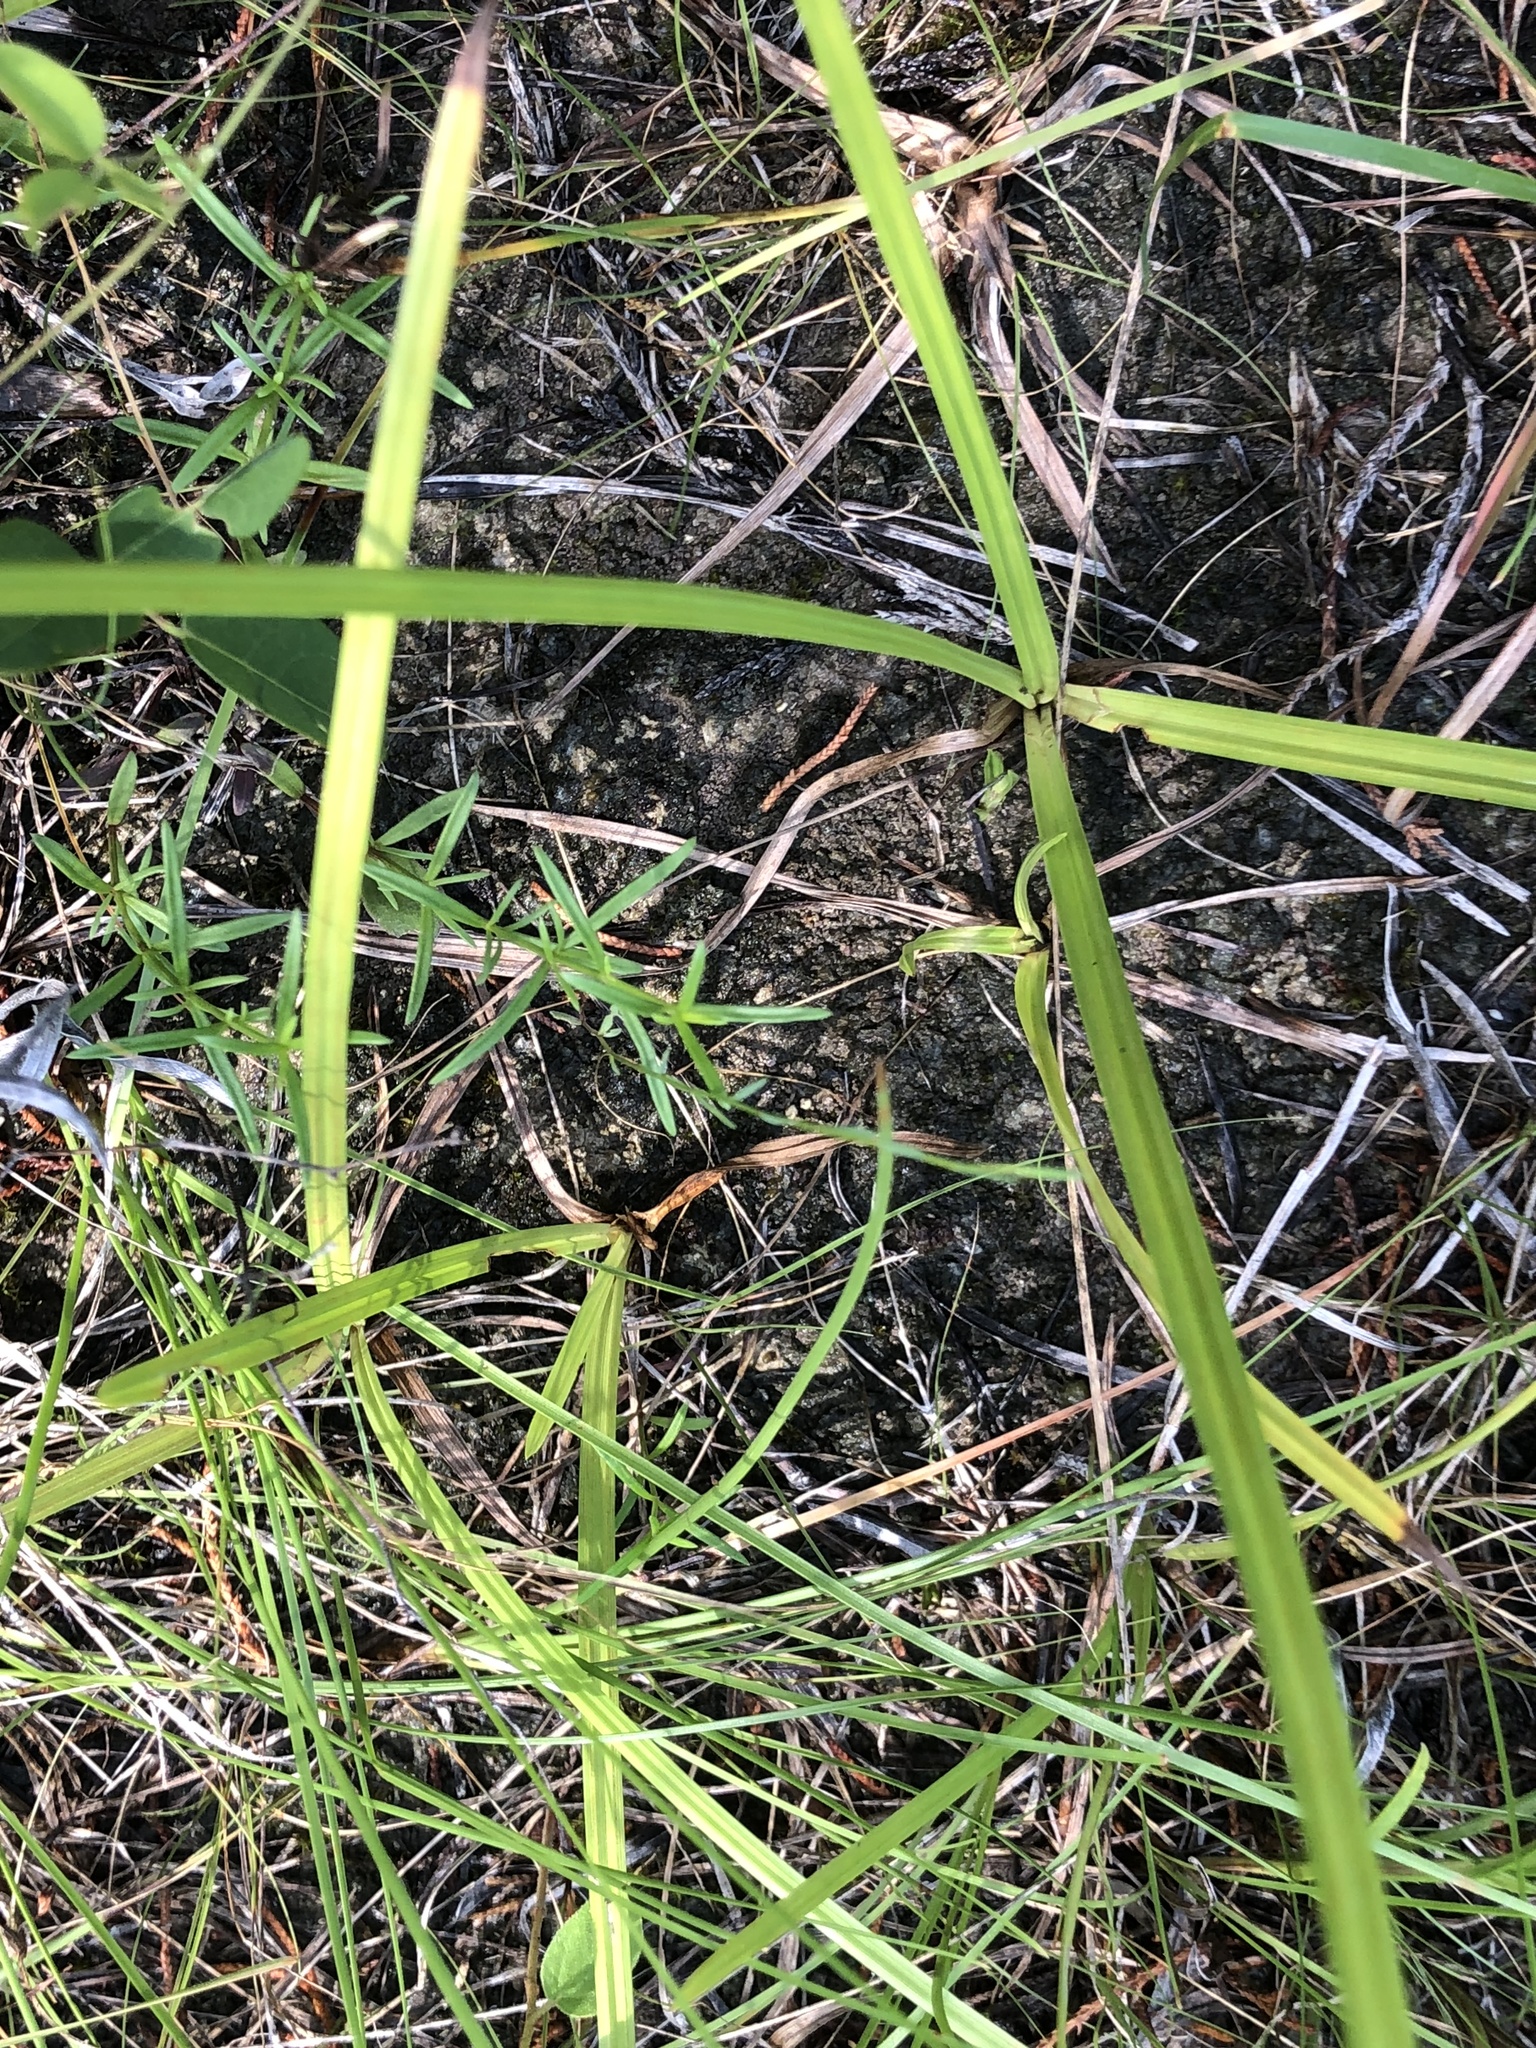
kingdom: Plantae
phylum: Tracheophyta
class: Liliopsida
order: Poales
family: Cyperaceae
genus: Carex
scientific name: Carex microdonta
